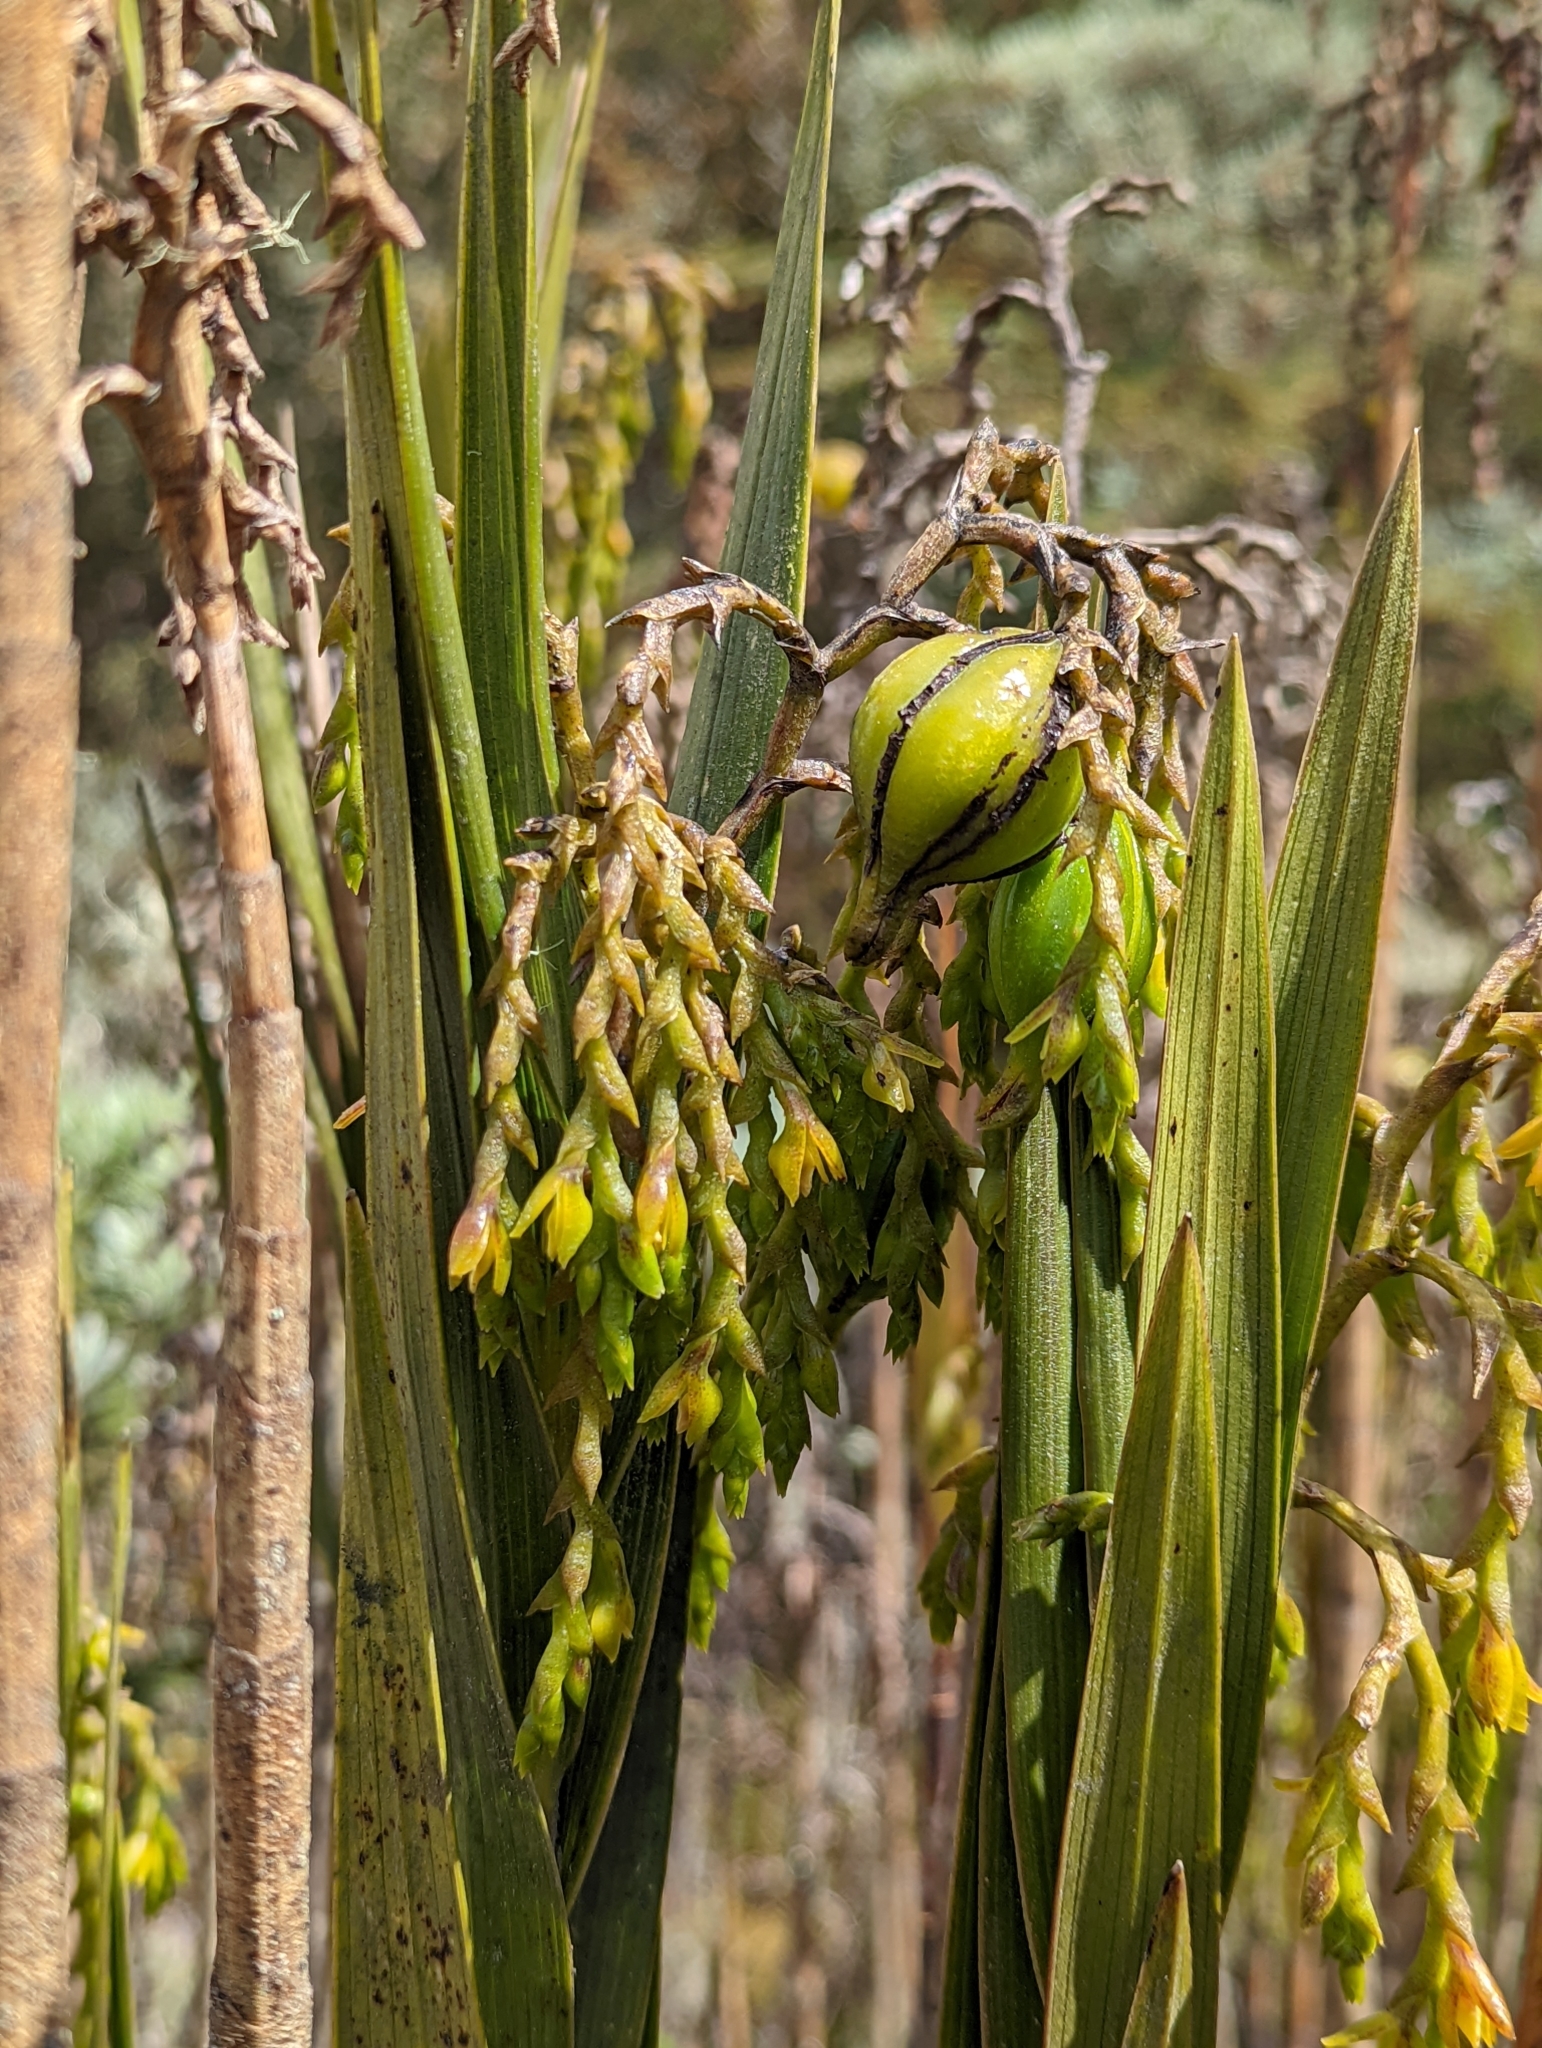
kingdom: Plantae
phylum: Tracheophyta
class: Liliopsida
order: Asparagales
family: Orchidaceae
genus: Epidendrum
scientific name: Epidendrum bogotense
